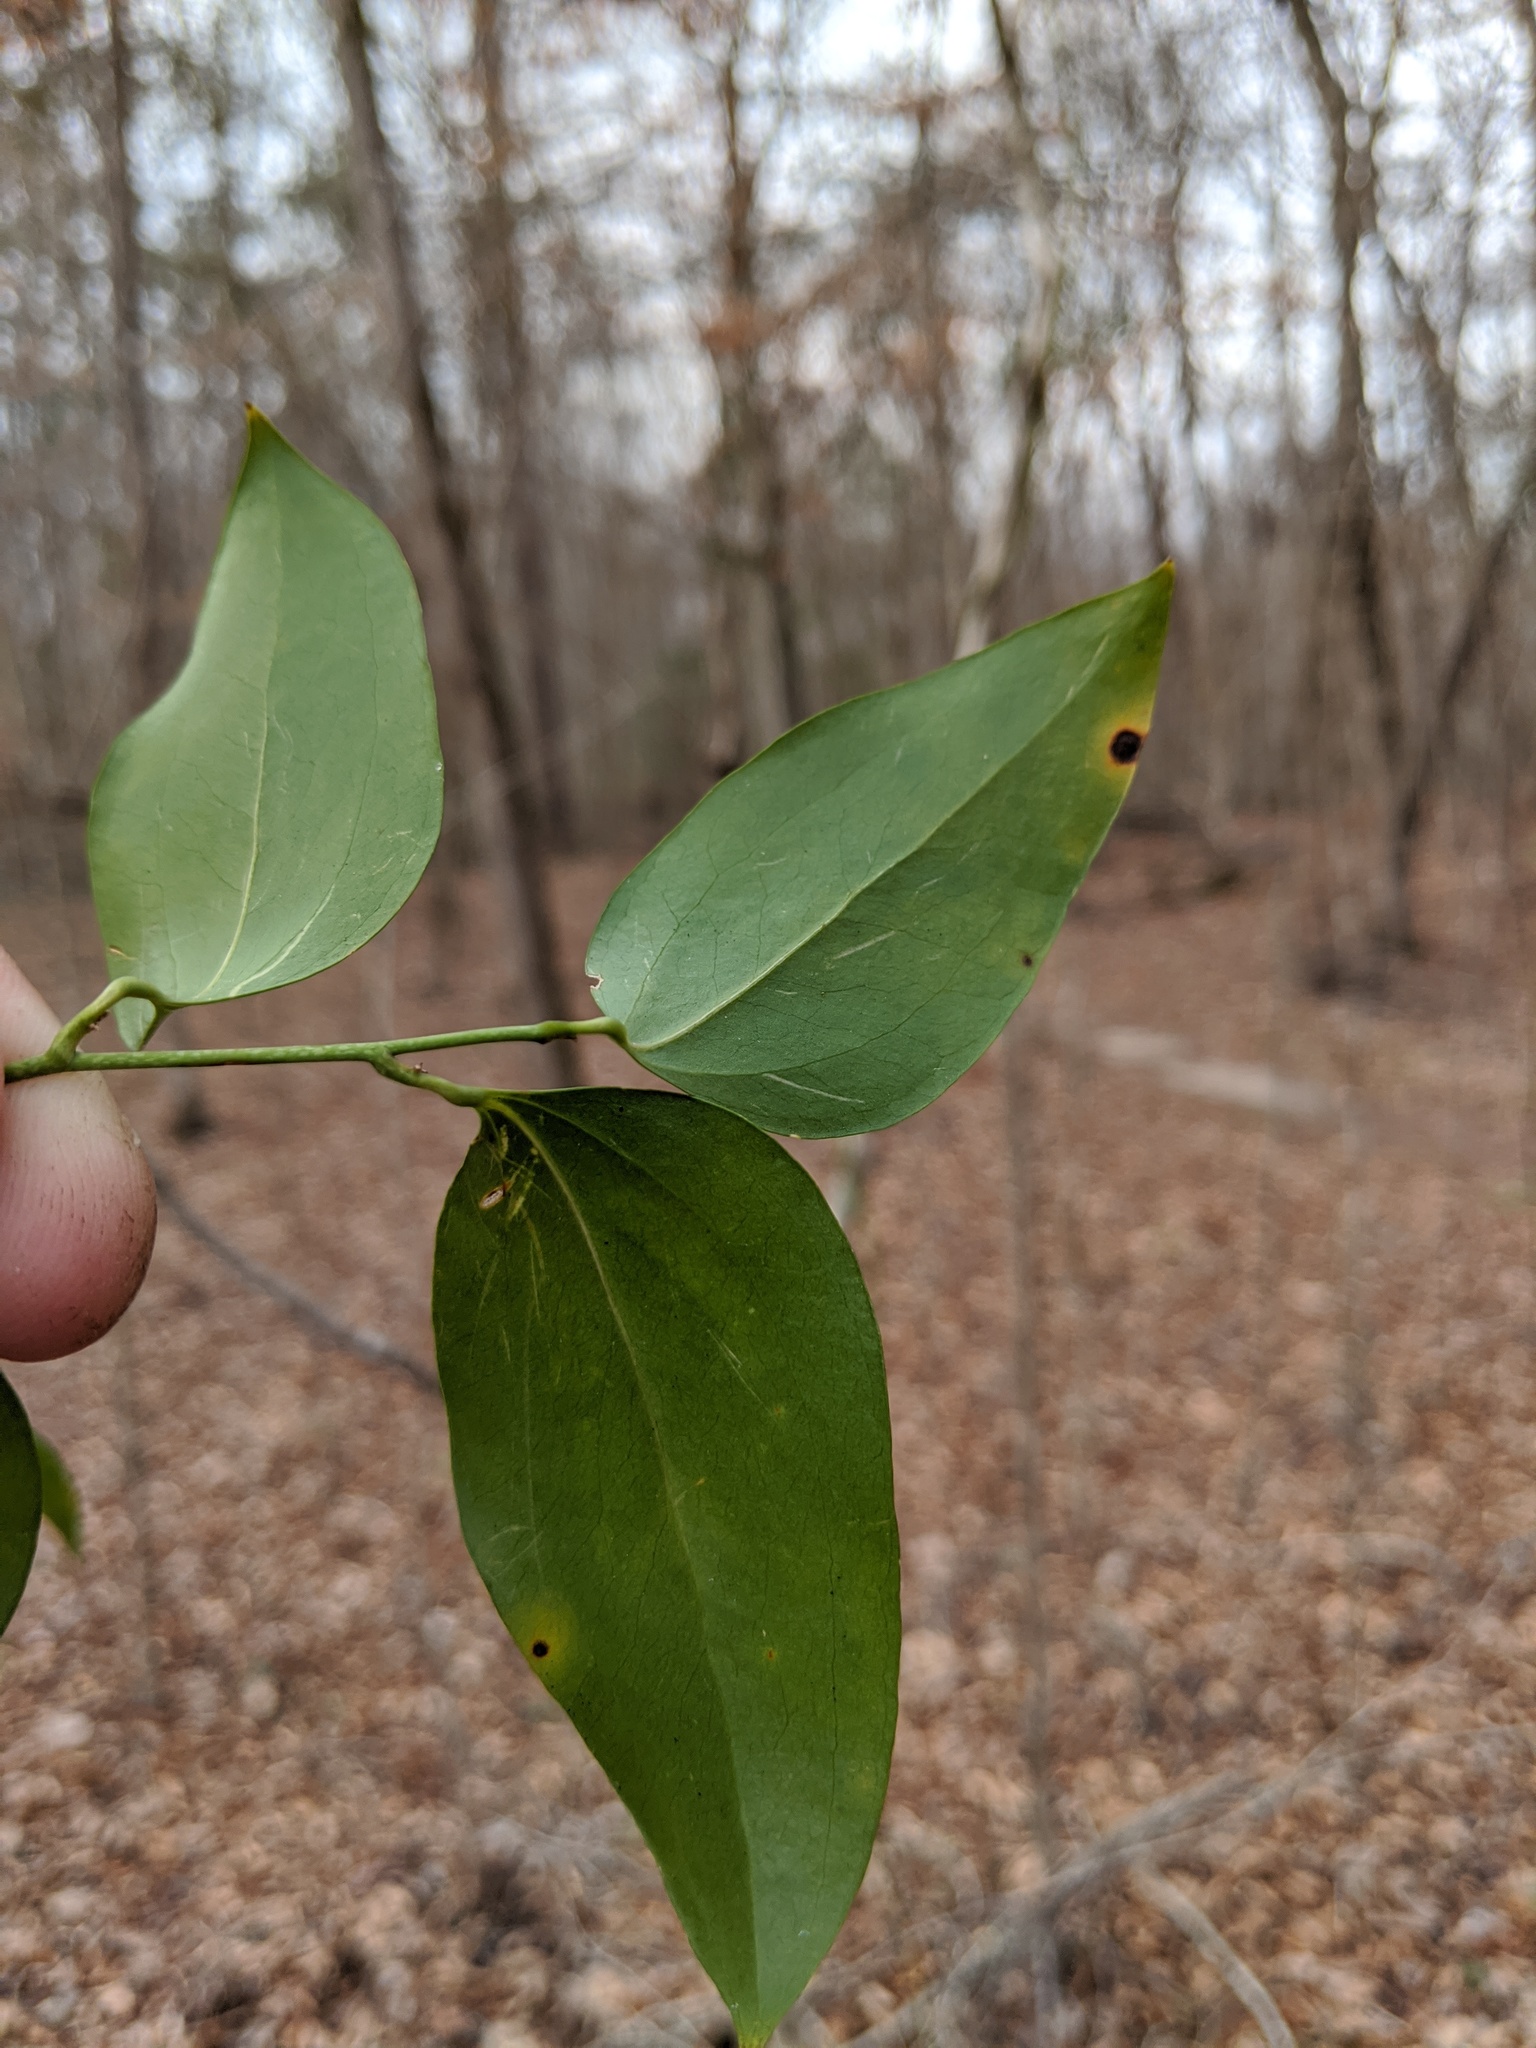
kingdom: Plantae
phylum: Tracheophyta
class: Liliopsida
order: Liliales
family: Smilacaceae
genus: Smilax
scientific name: Smilax maritima
